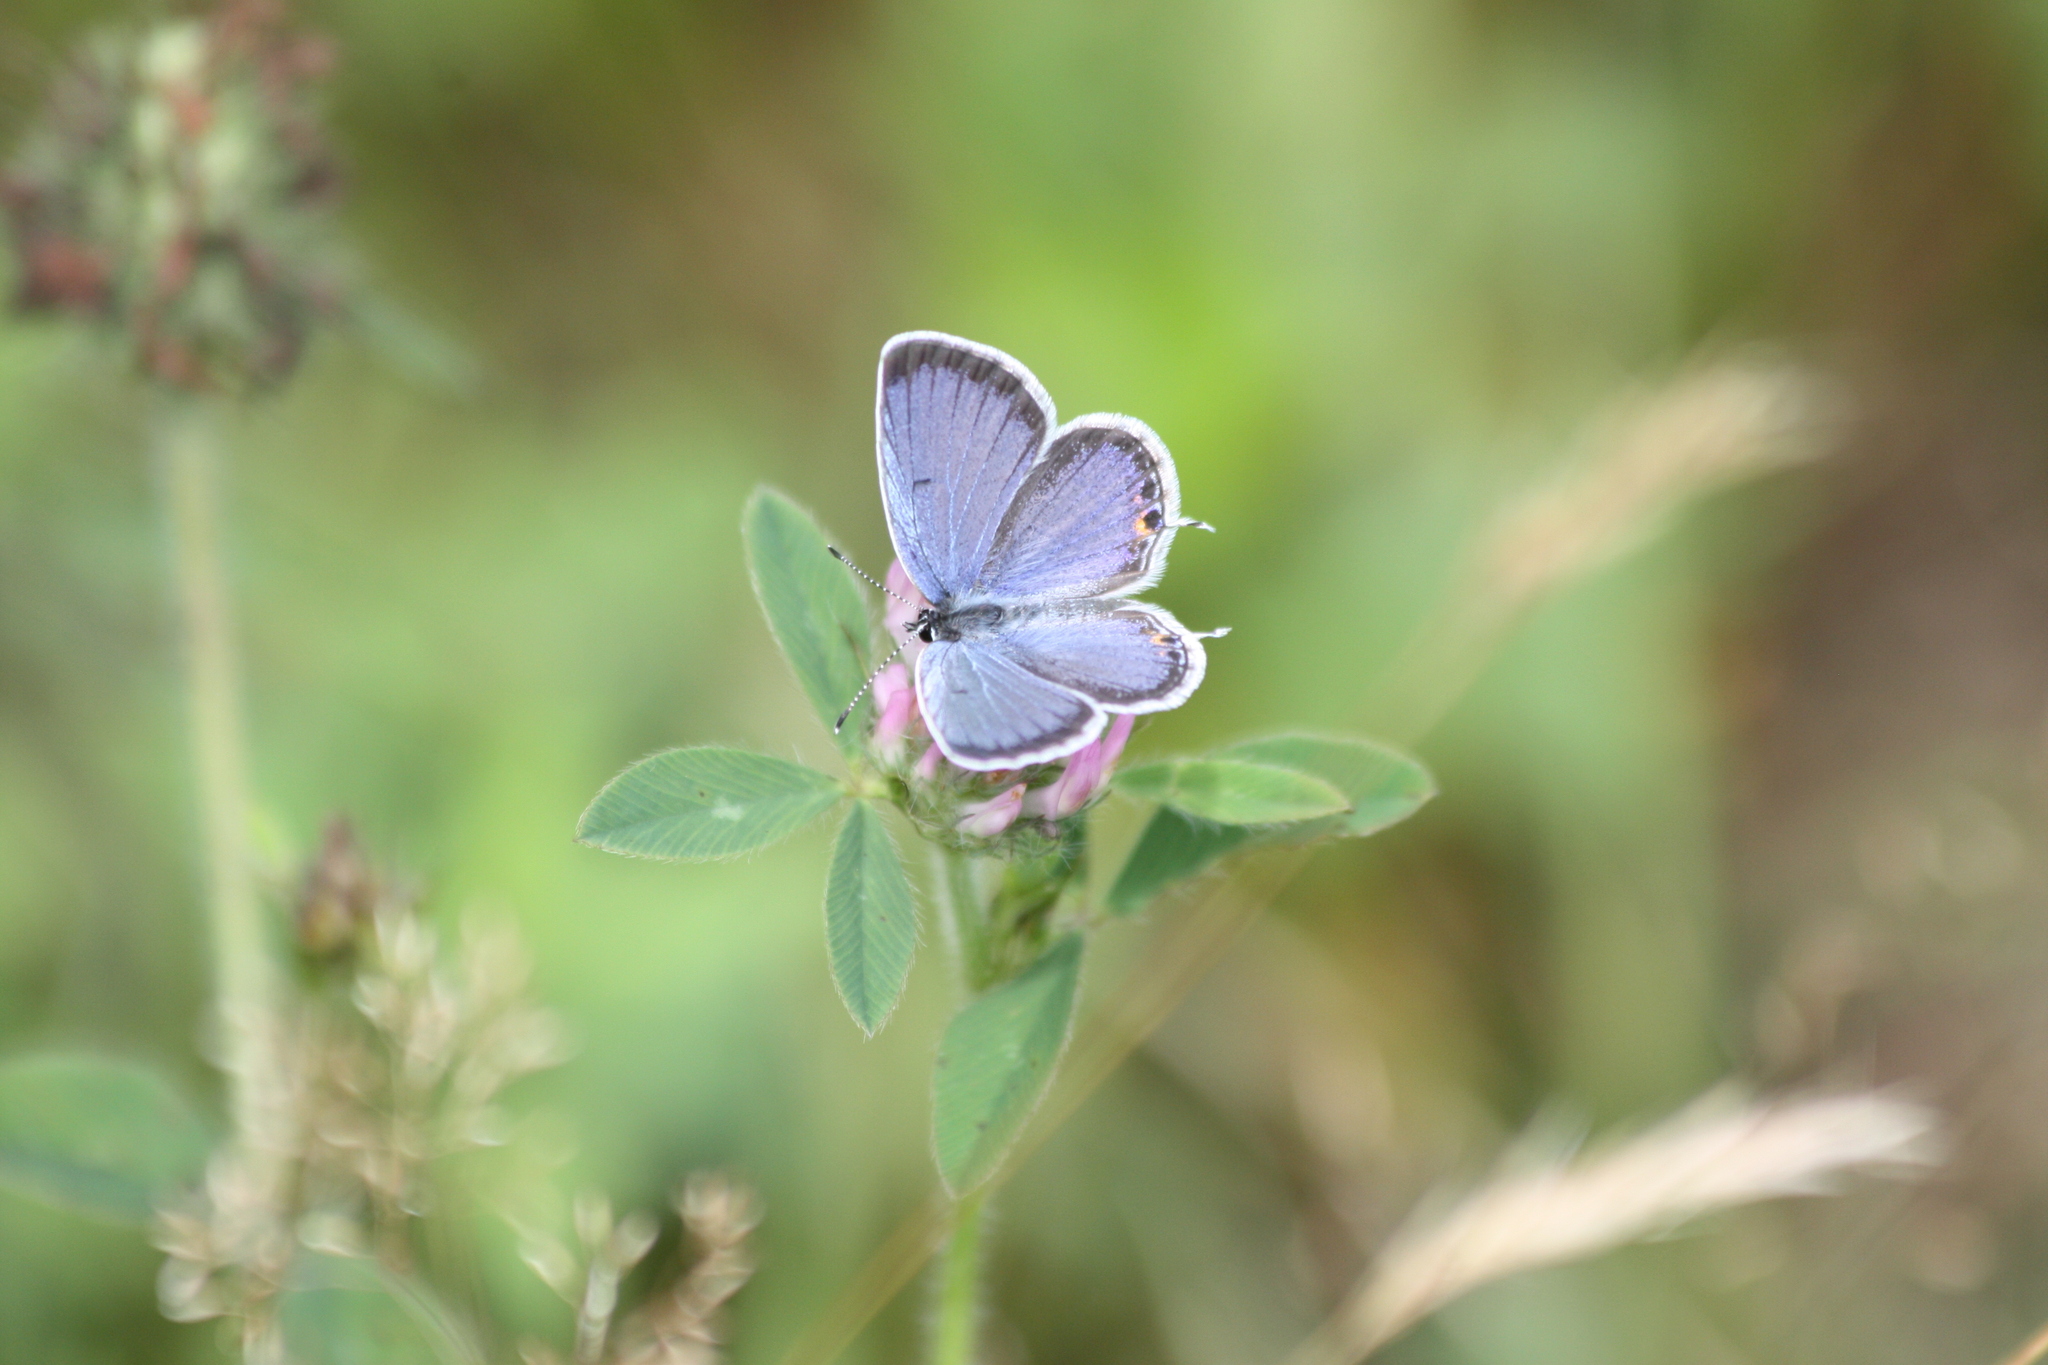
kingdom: Animalia
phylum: Arthropoda
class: Insecta
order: Lepidoptera
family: Lycaenidae
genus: Elkalyce
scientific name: Elkalyce comyntas
